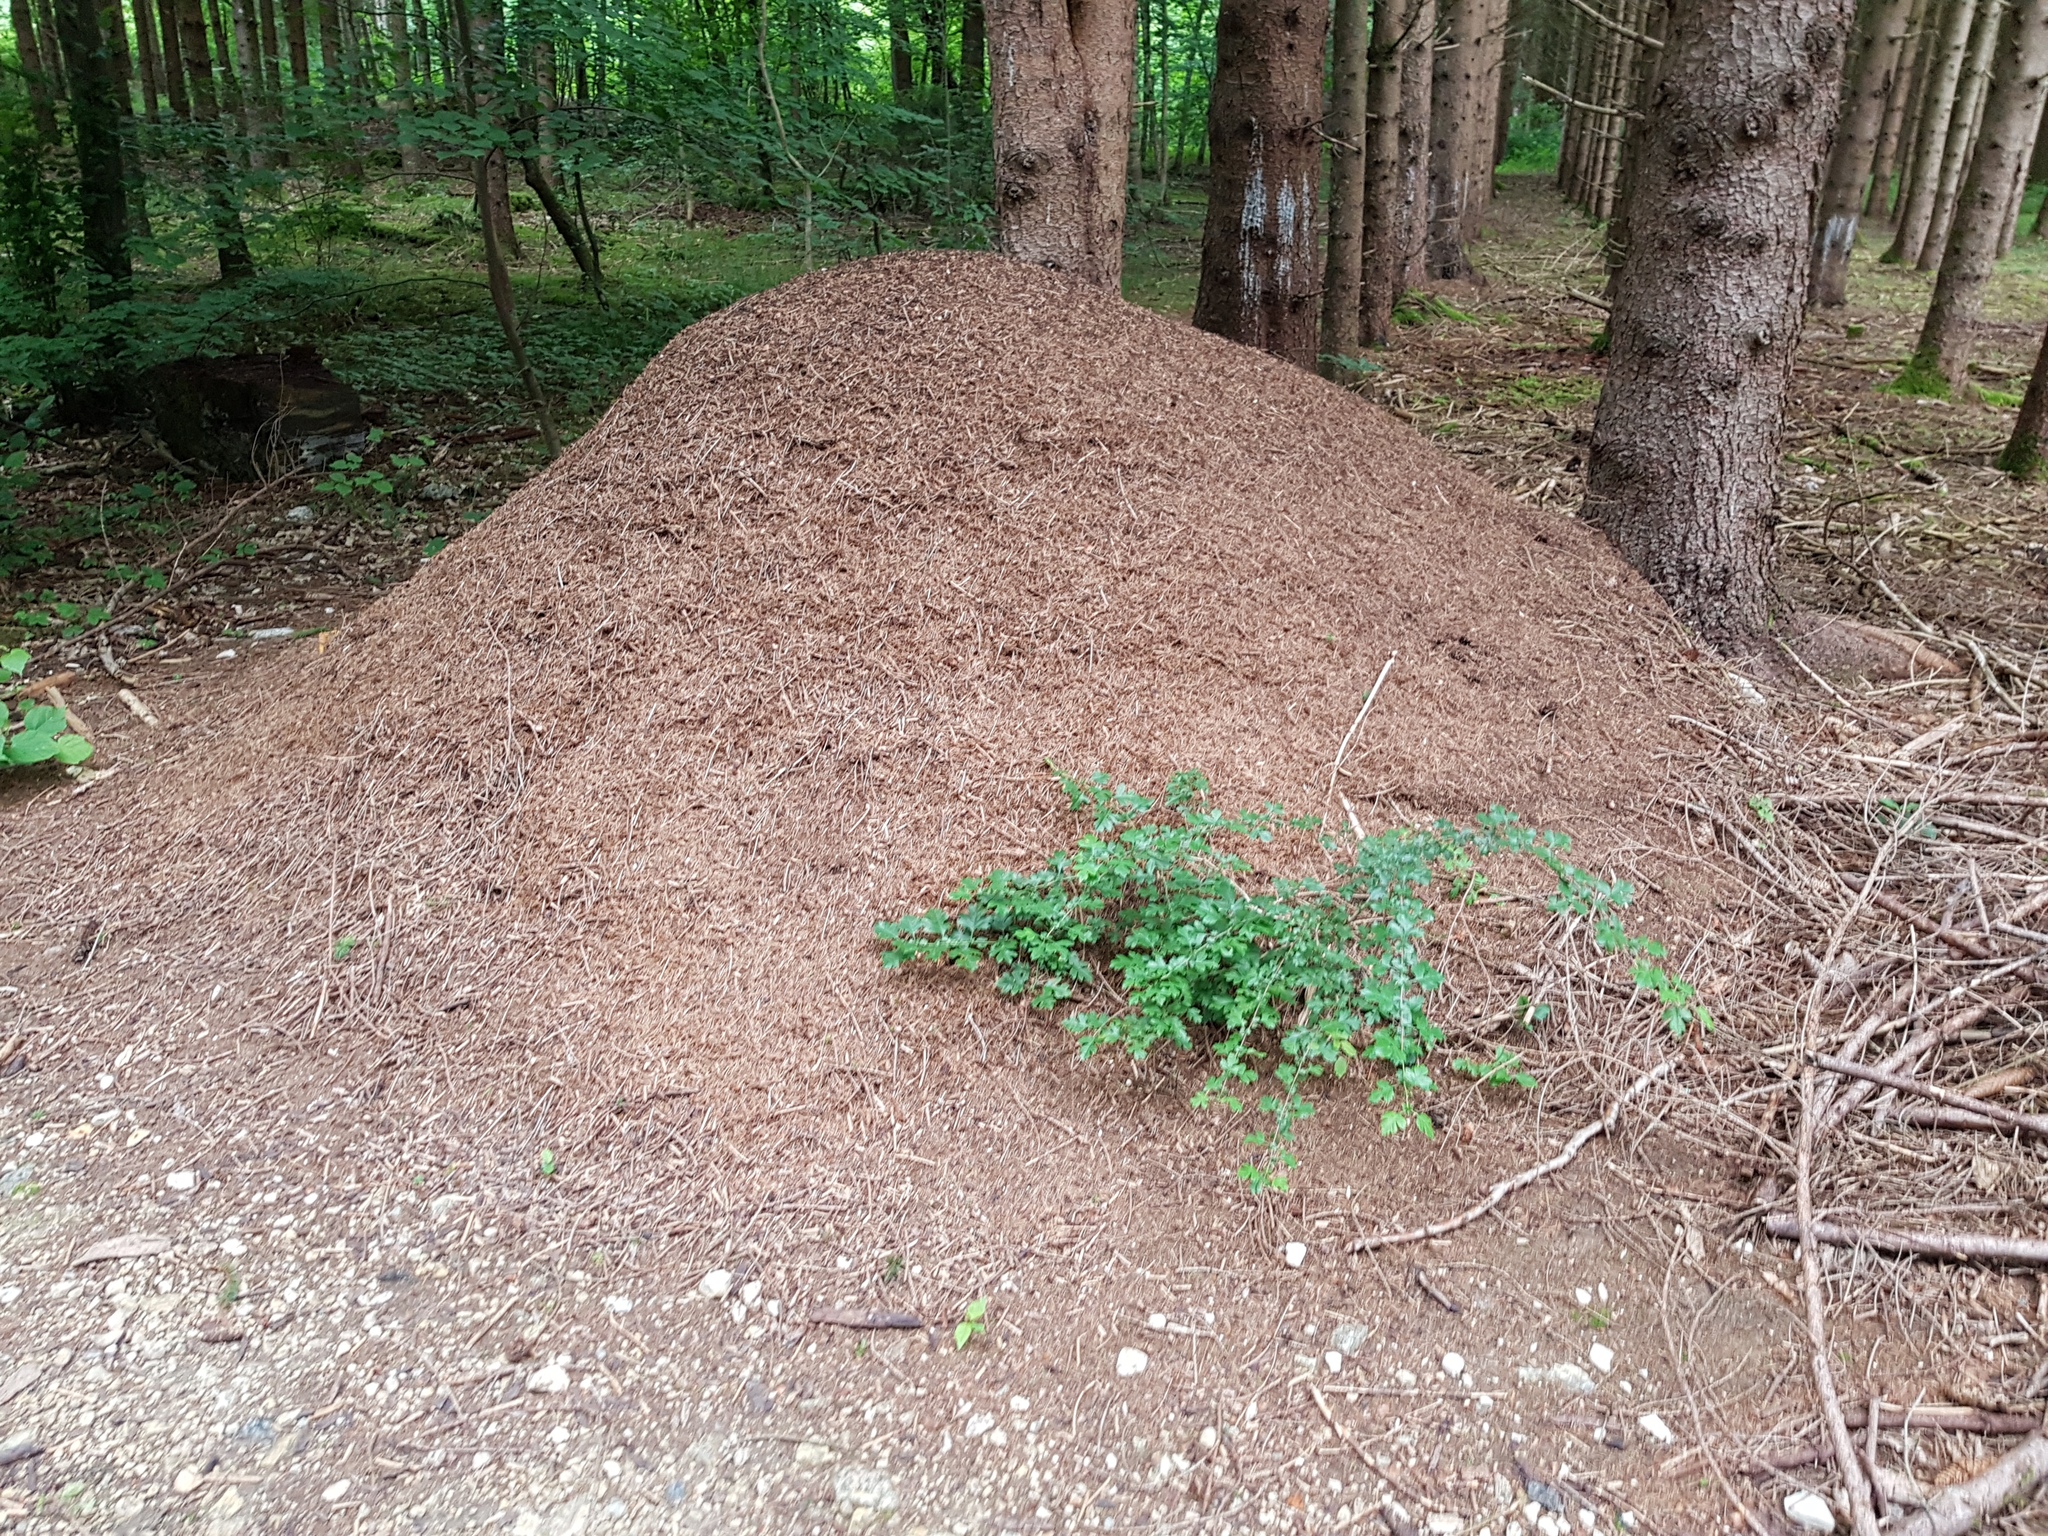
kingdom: Animalia
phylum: Arthropoda
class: Insecta
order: Hymenoptera
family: Formicidae
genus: Formica
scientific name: Formica
